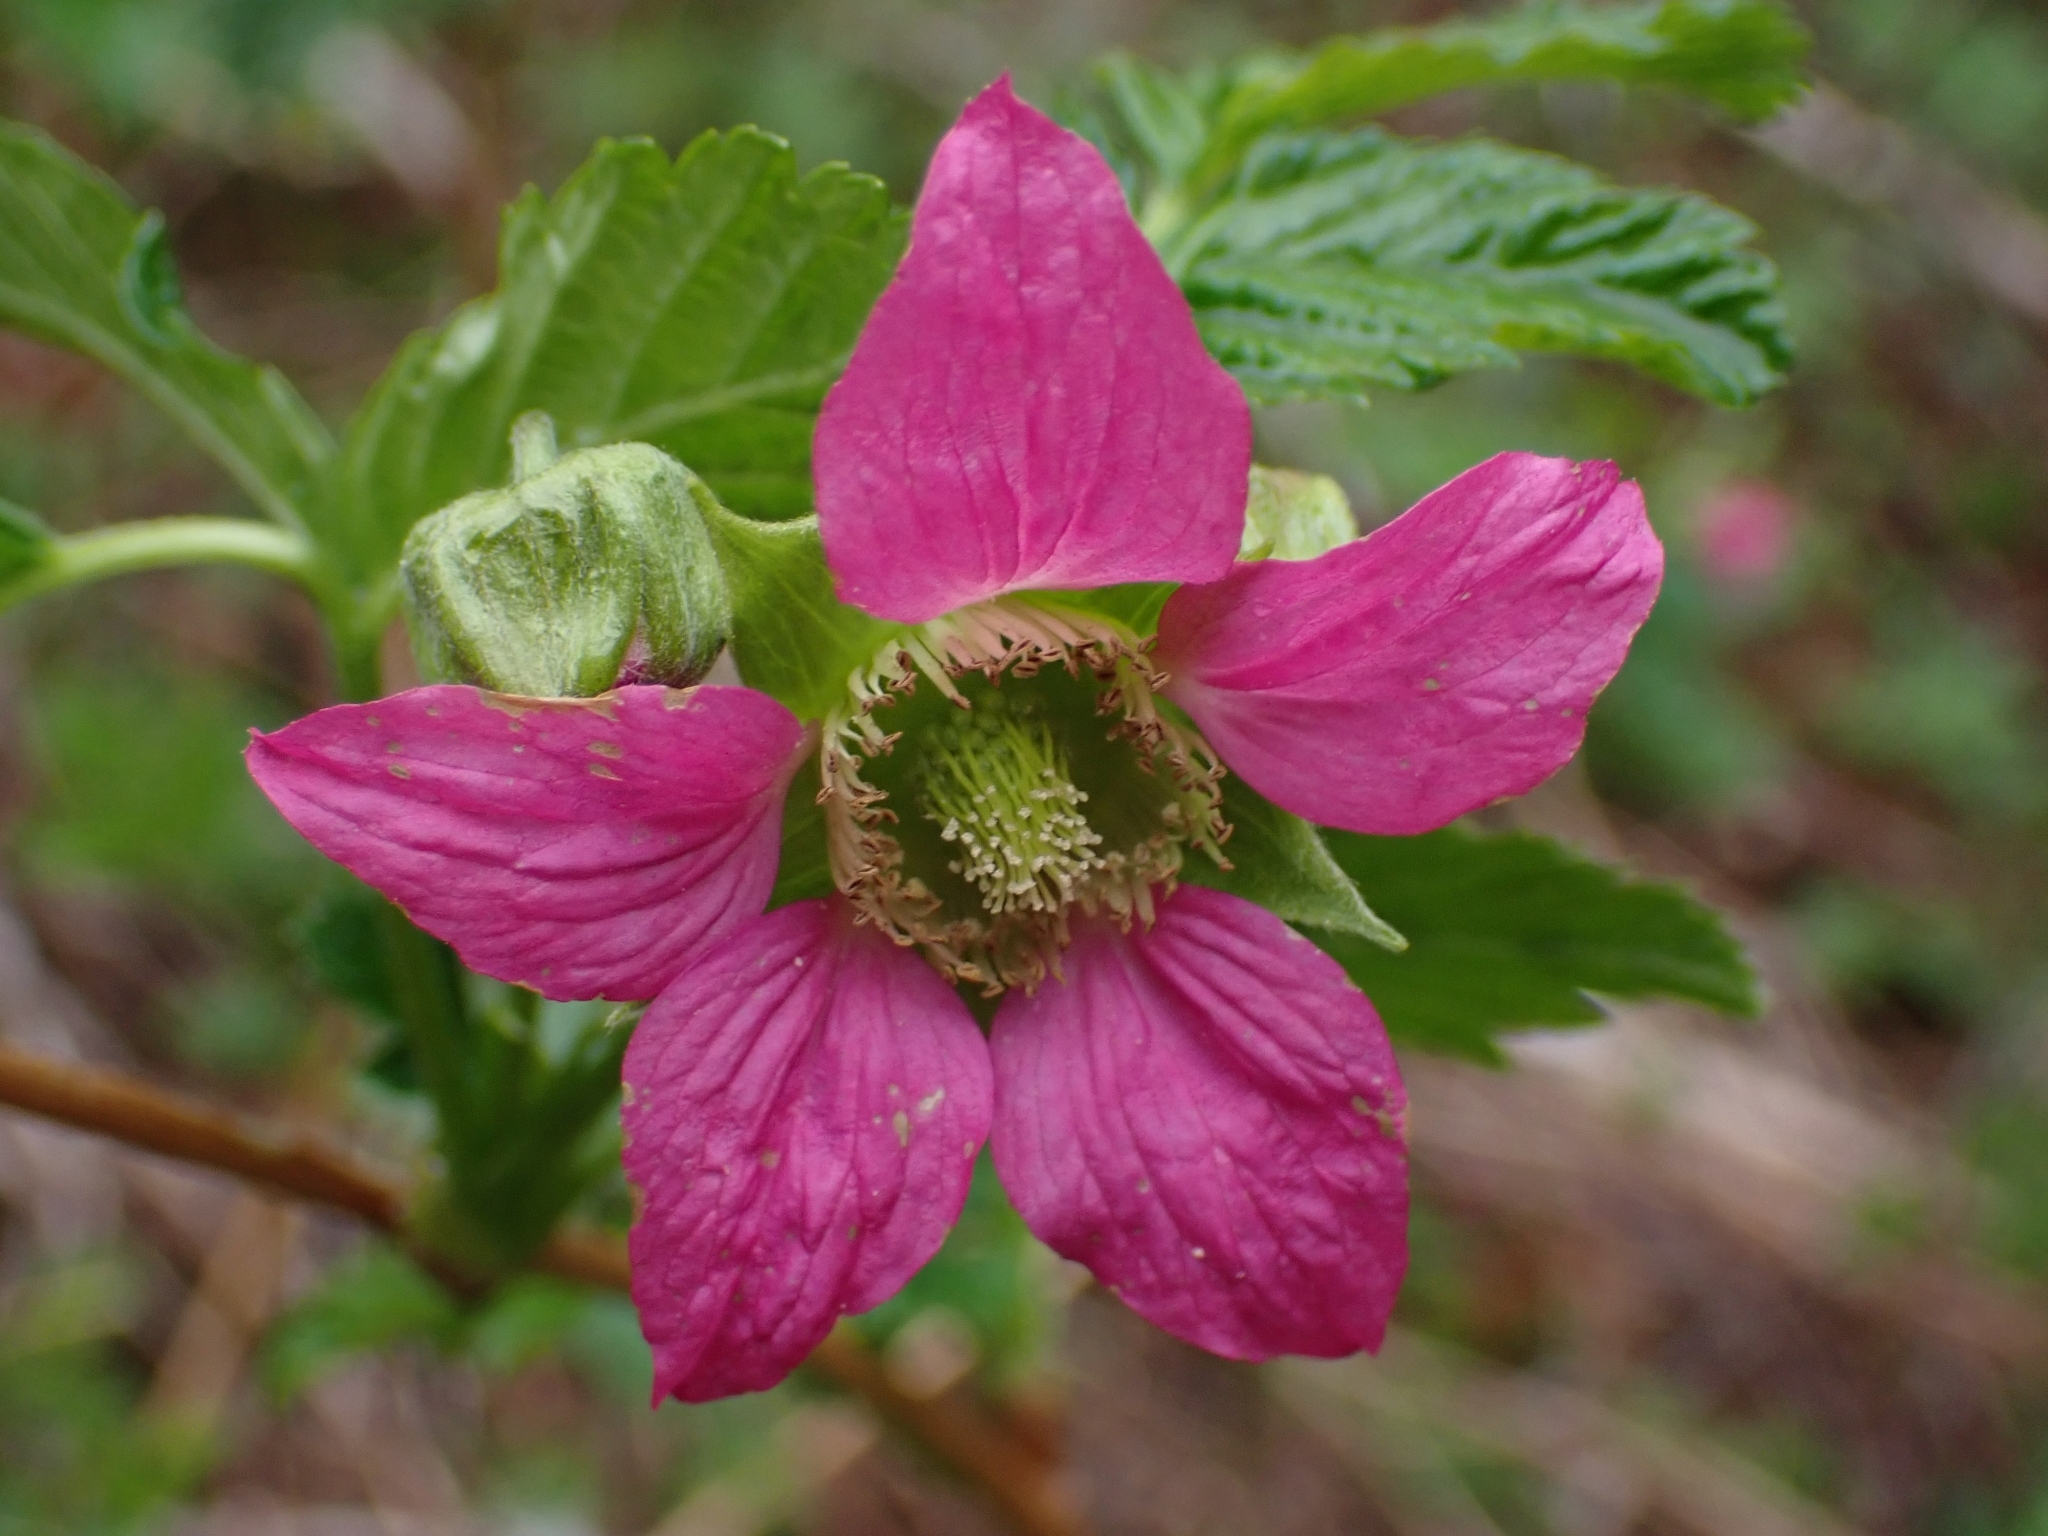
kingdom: Plantae
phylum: Tracheophyta
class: Magnoliopsida
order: Rosales
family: Rosaceae
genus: Rubus
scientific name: Rubus spectabilis
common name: Salmonberry
